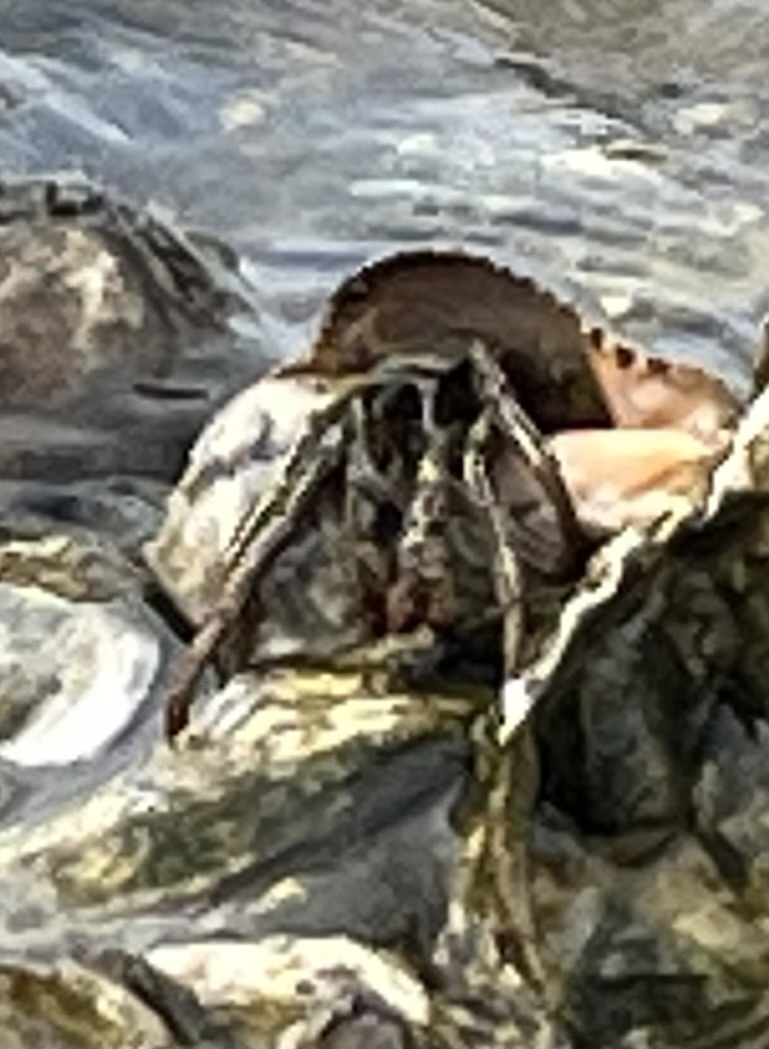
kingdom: Animalia
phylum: Arthropoda
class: Malacostraca
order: Decapoda
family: Diogenidae
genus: Clibanarius
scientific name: Clibanarius vittatus
